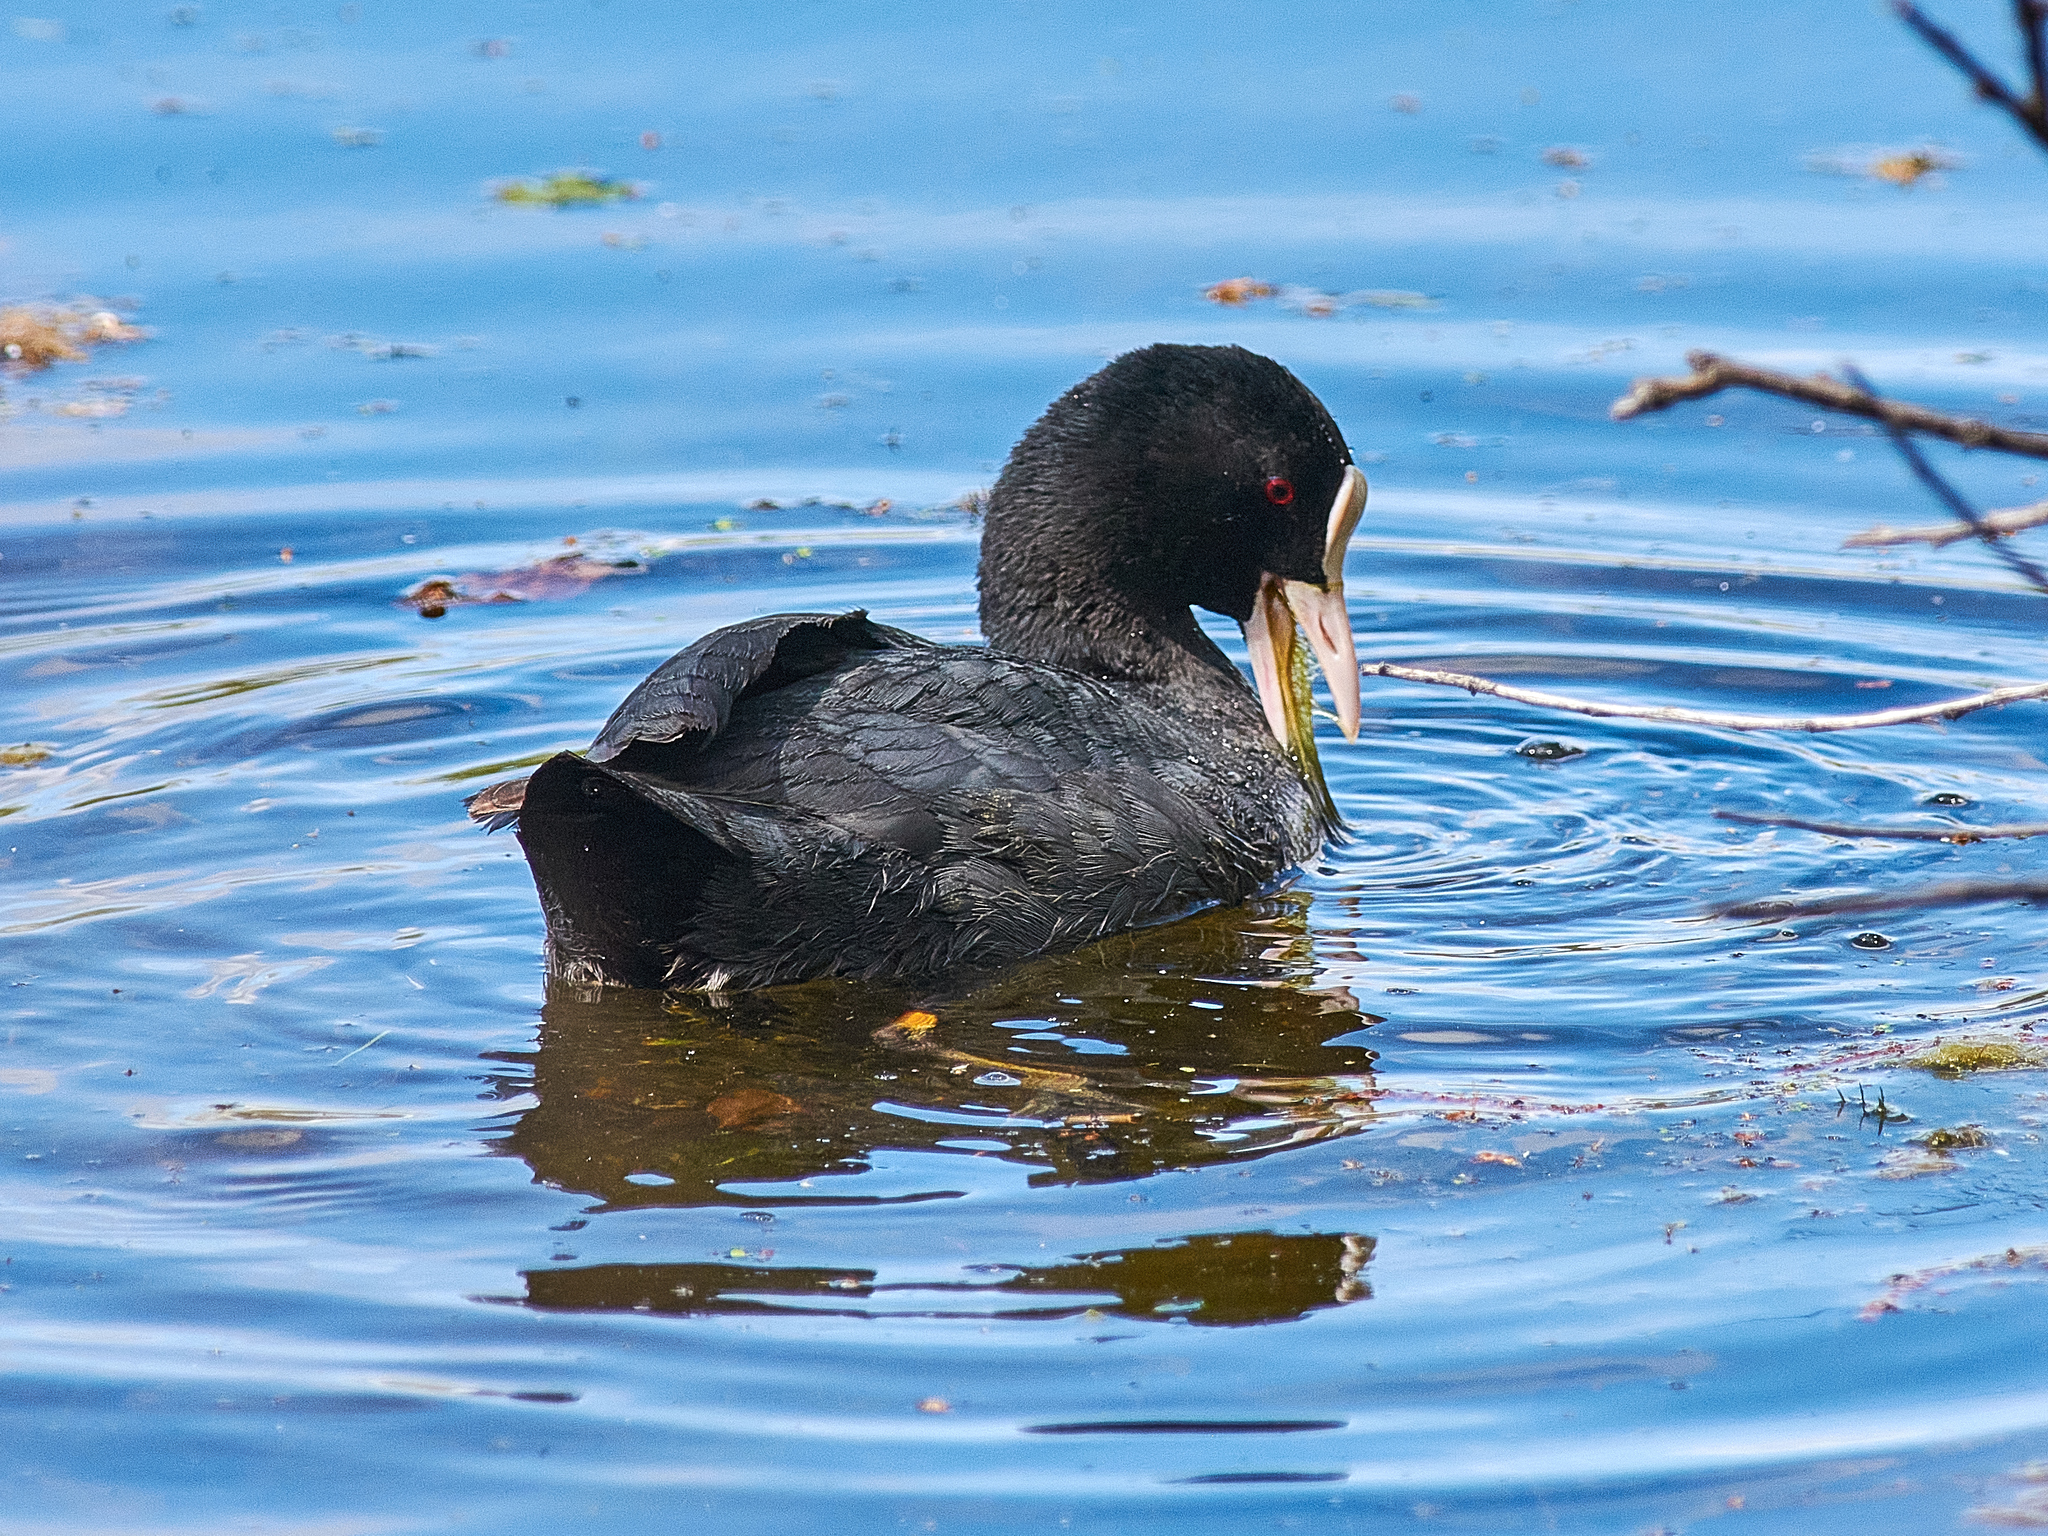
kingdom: Animalia
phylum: Chordata
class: Aves
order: Gruiformes
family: Rallidae
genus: Fulica
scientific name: Fulica atra
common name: Eurasian coot
